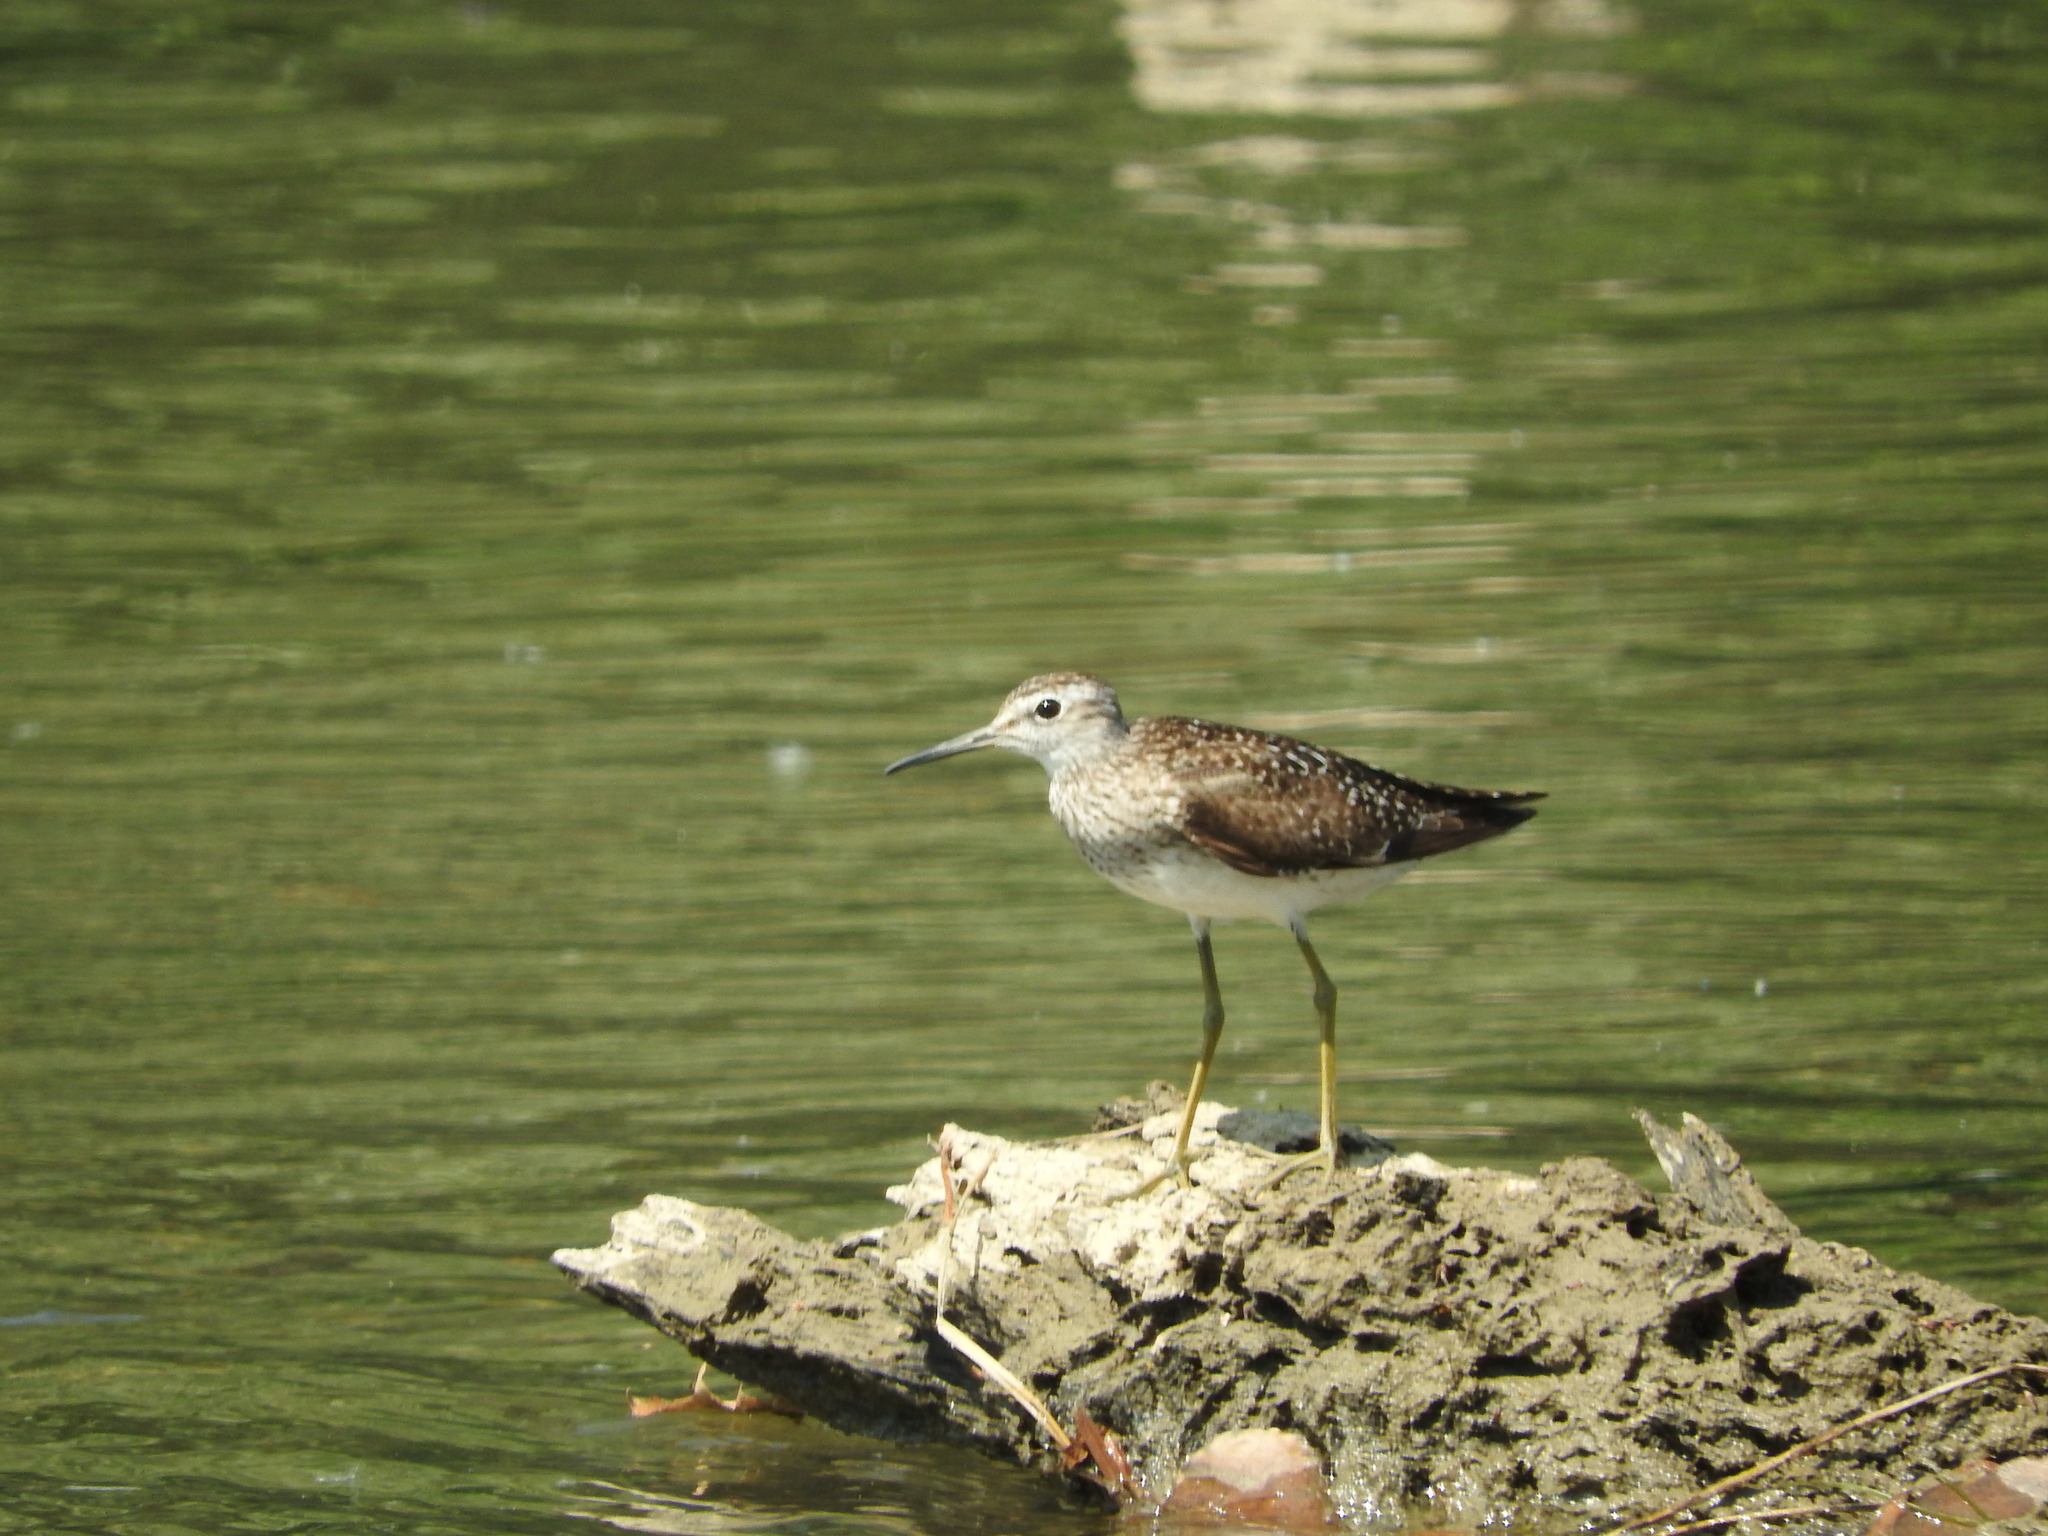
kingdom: Animalia
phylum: Chordata
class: Aves
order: Charadriiformes
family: Scolopacidae
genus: Tringa
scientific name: Tringa glareola
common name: Wood sandpiper
